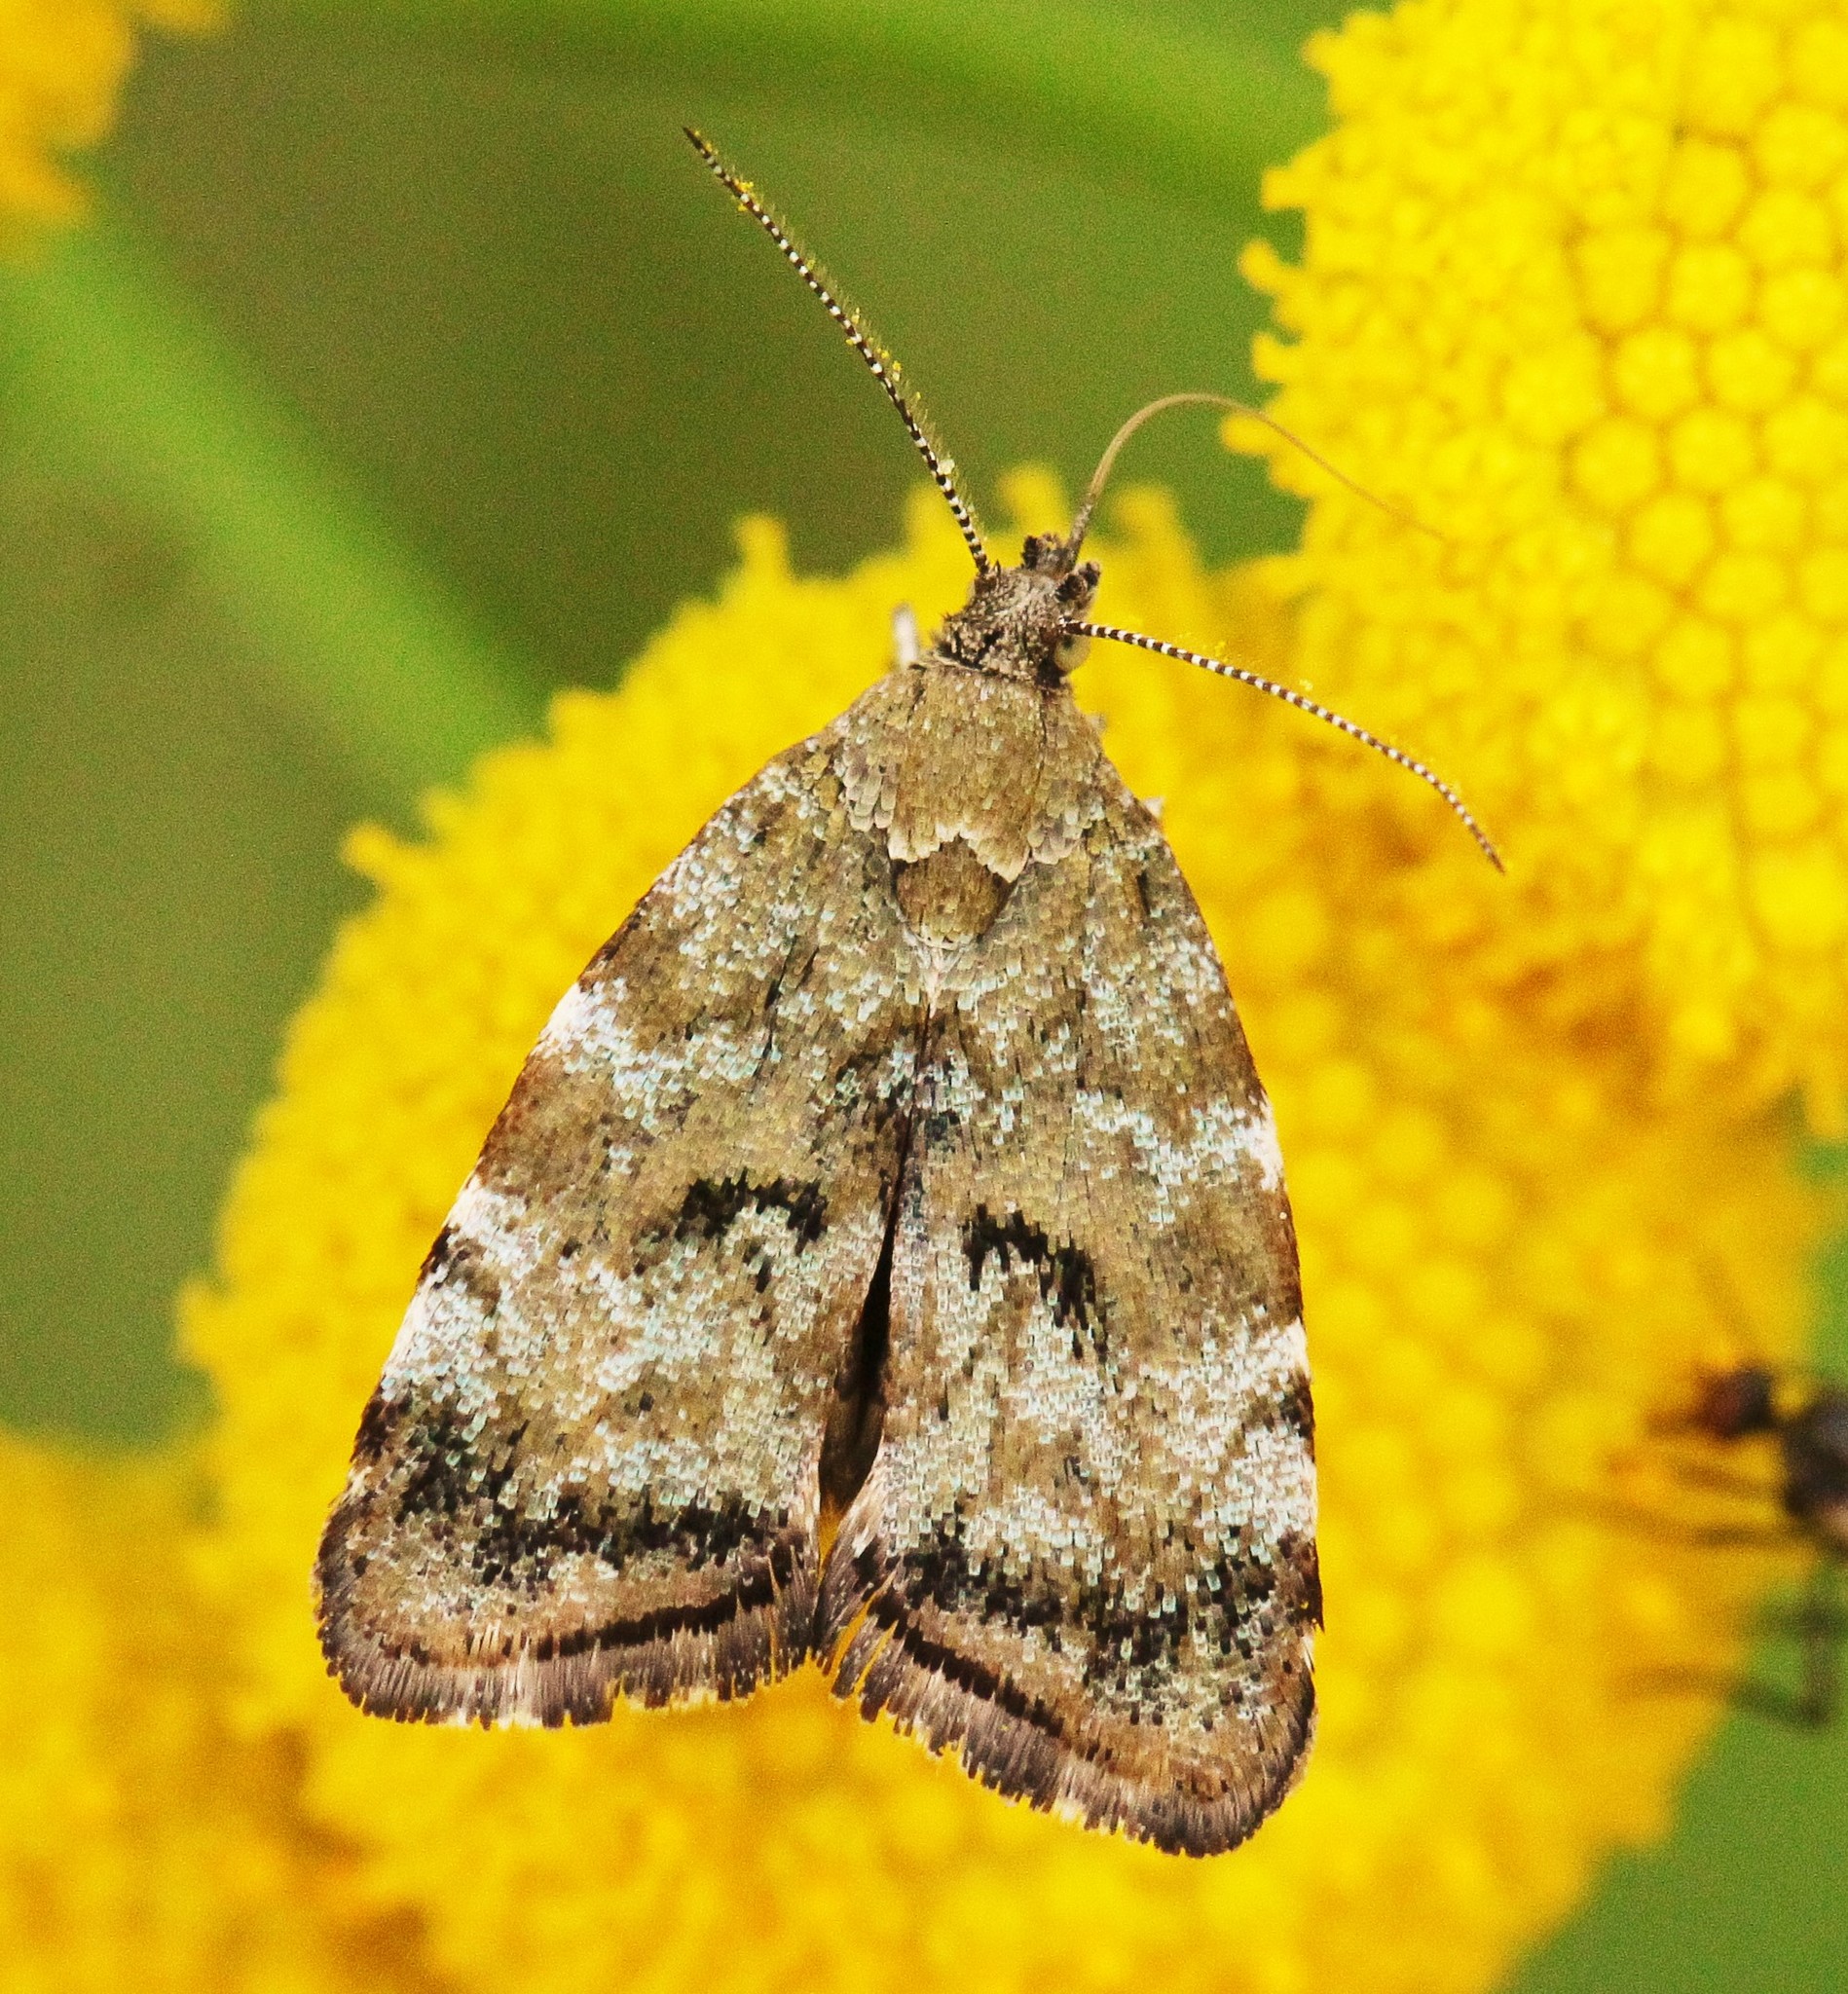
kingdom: Animalia
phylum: Arthropoda
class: Insecta
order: Lepidoptera
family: Choreutidae
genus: Choreutis
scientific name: Choreutis diana
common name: Inverness twitcher
